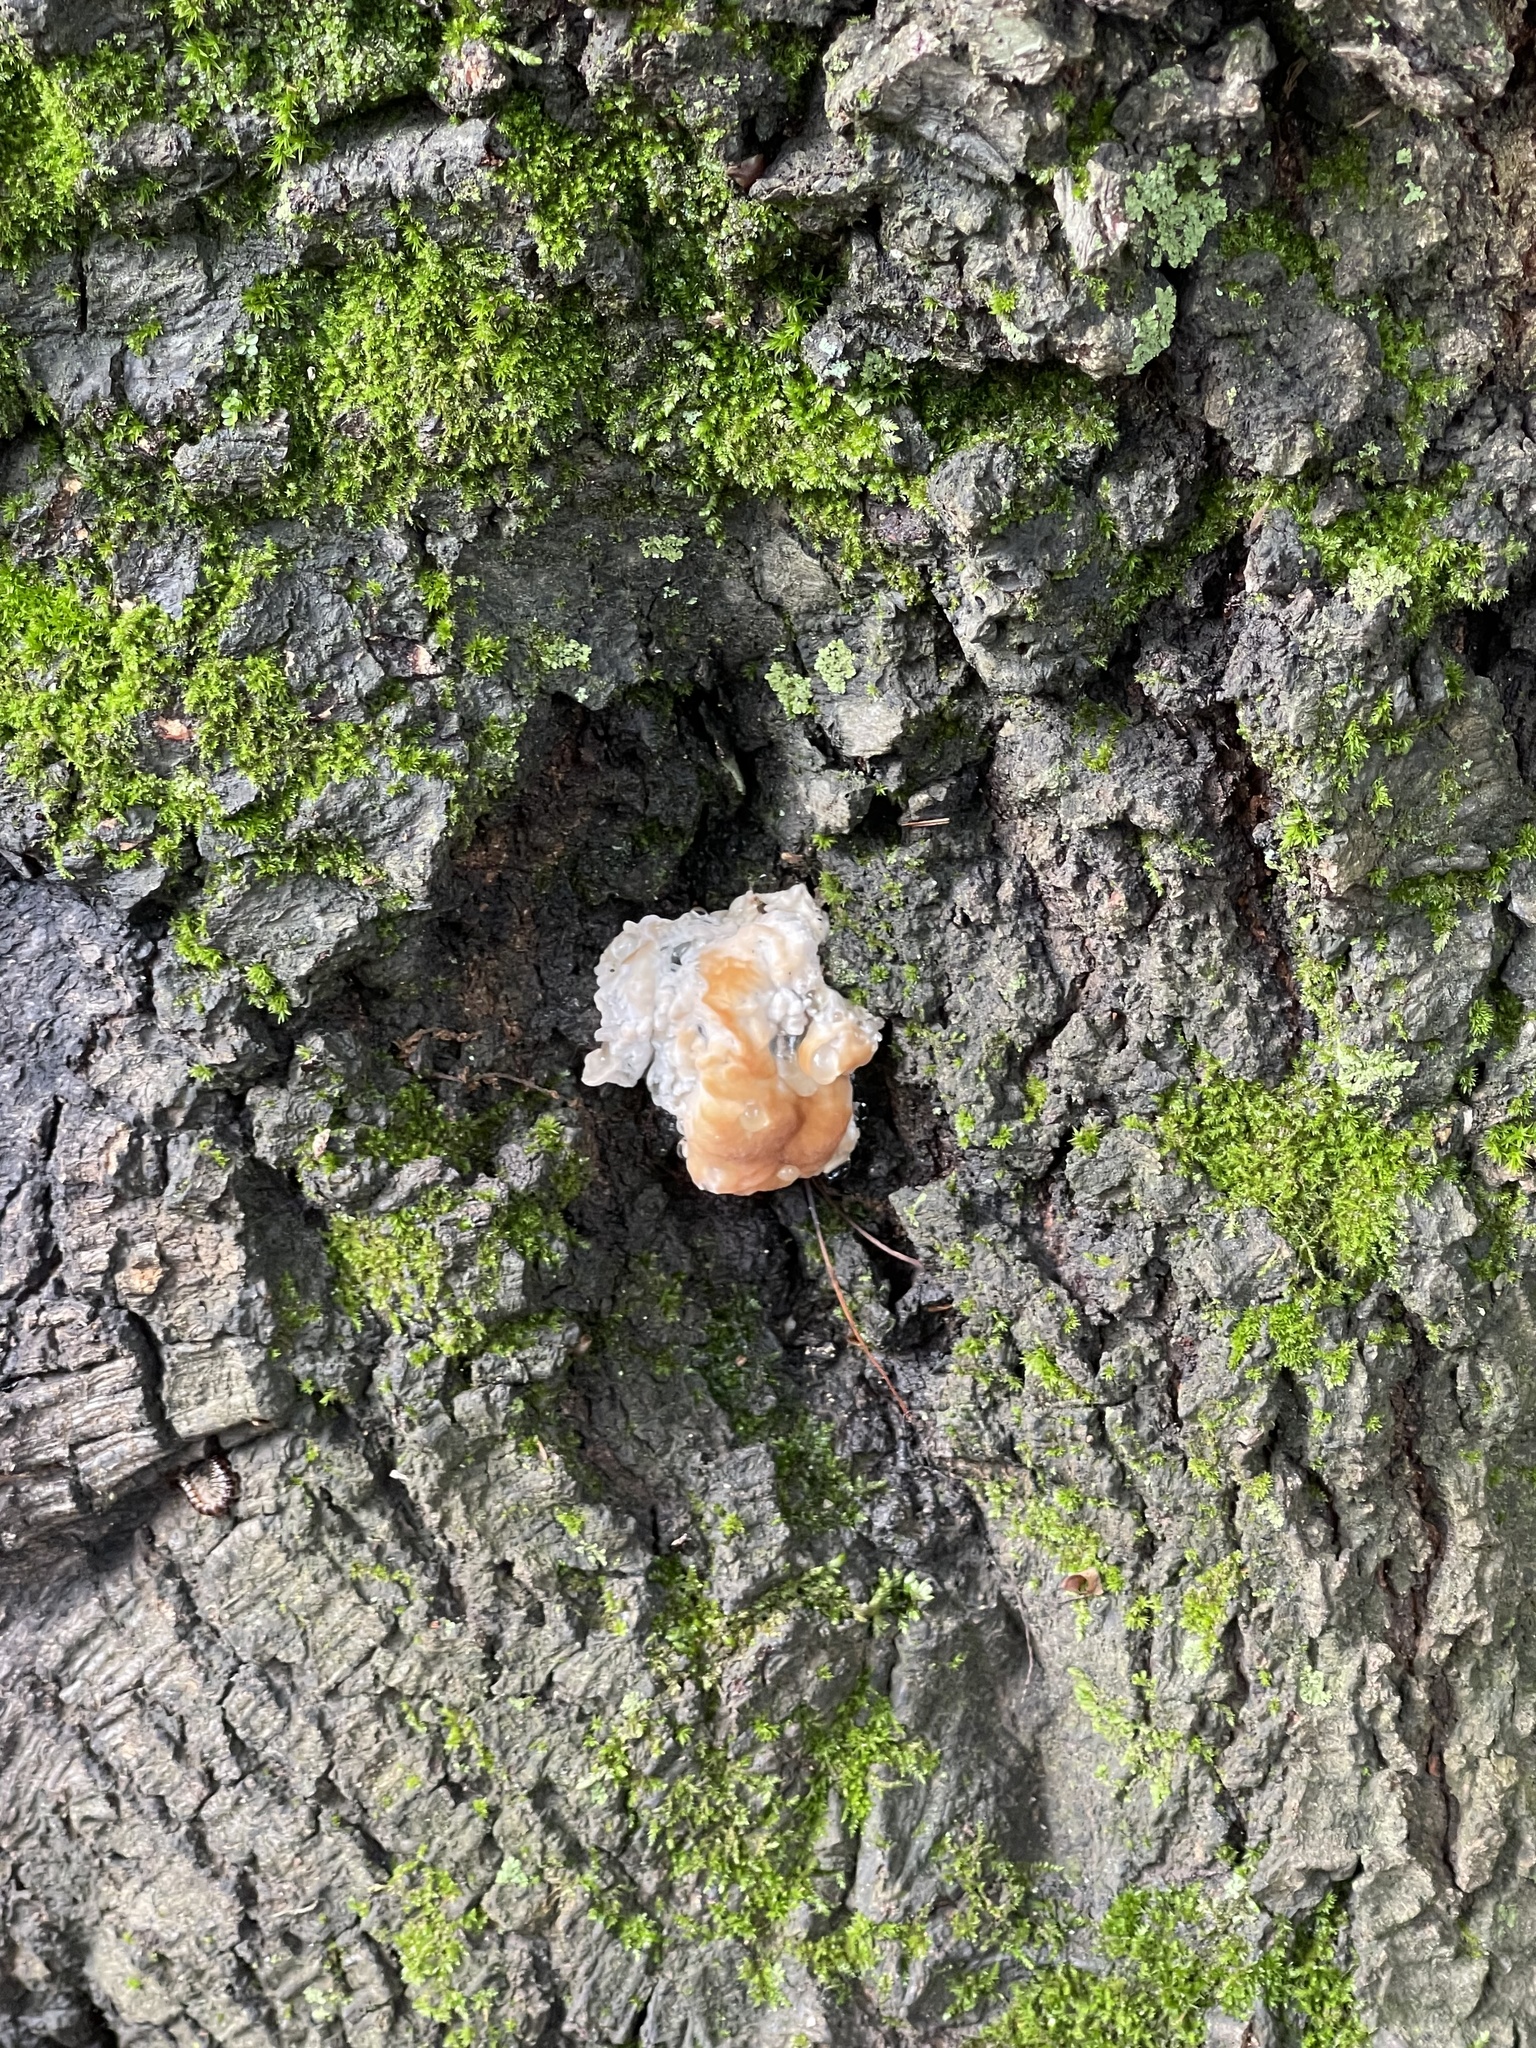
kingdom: Fungi
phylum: Basidiomycota
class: Agaricomycetes
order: Polyporales
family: Fomitopsidaceae
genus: Niveoporofomes
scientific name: Niveoporofomes spraguei
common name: Green cheese polypore
